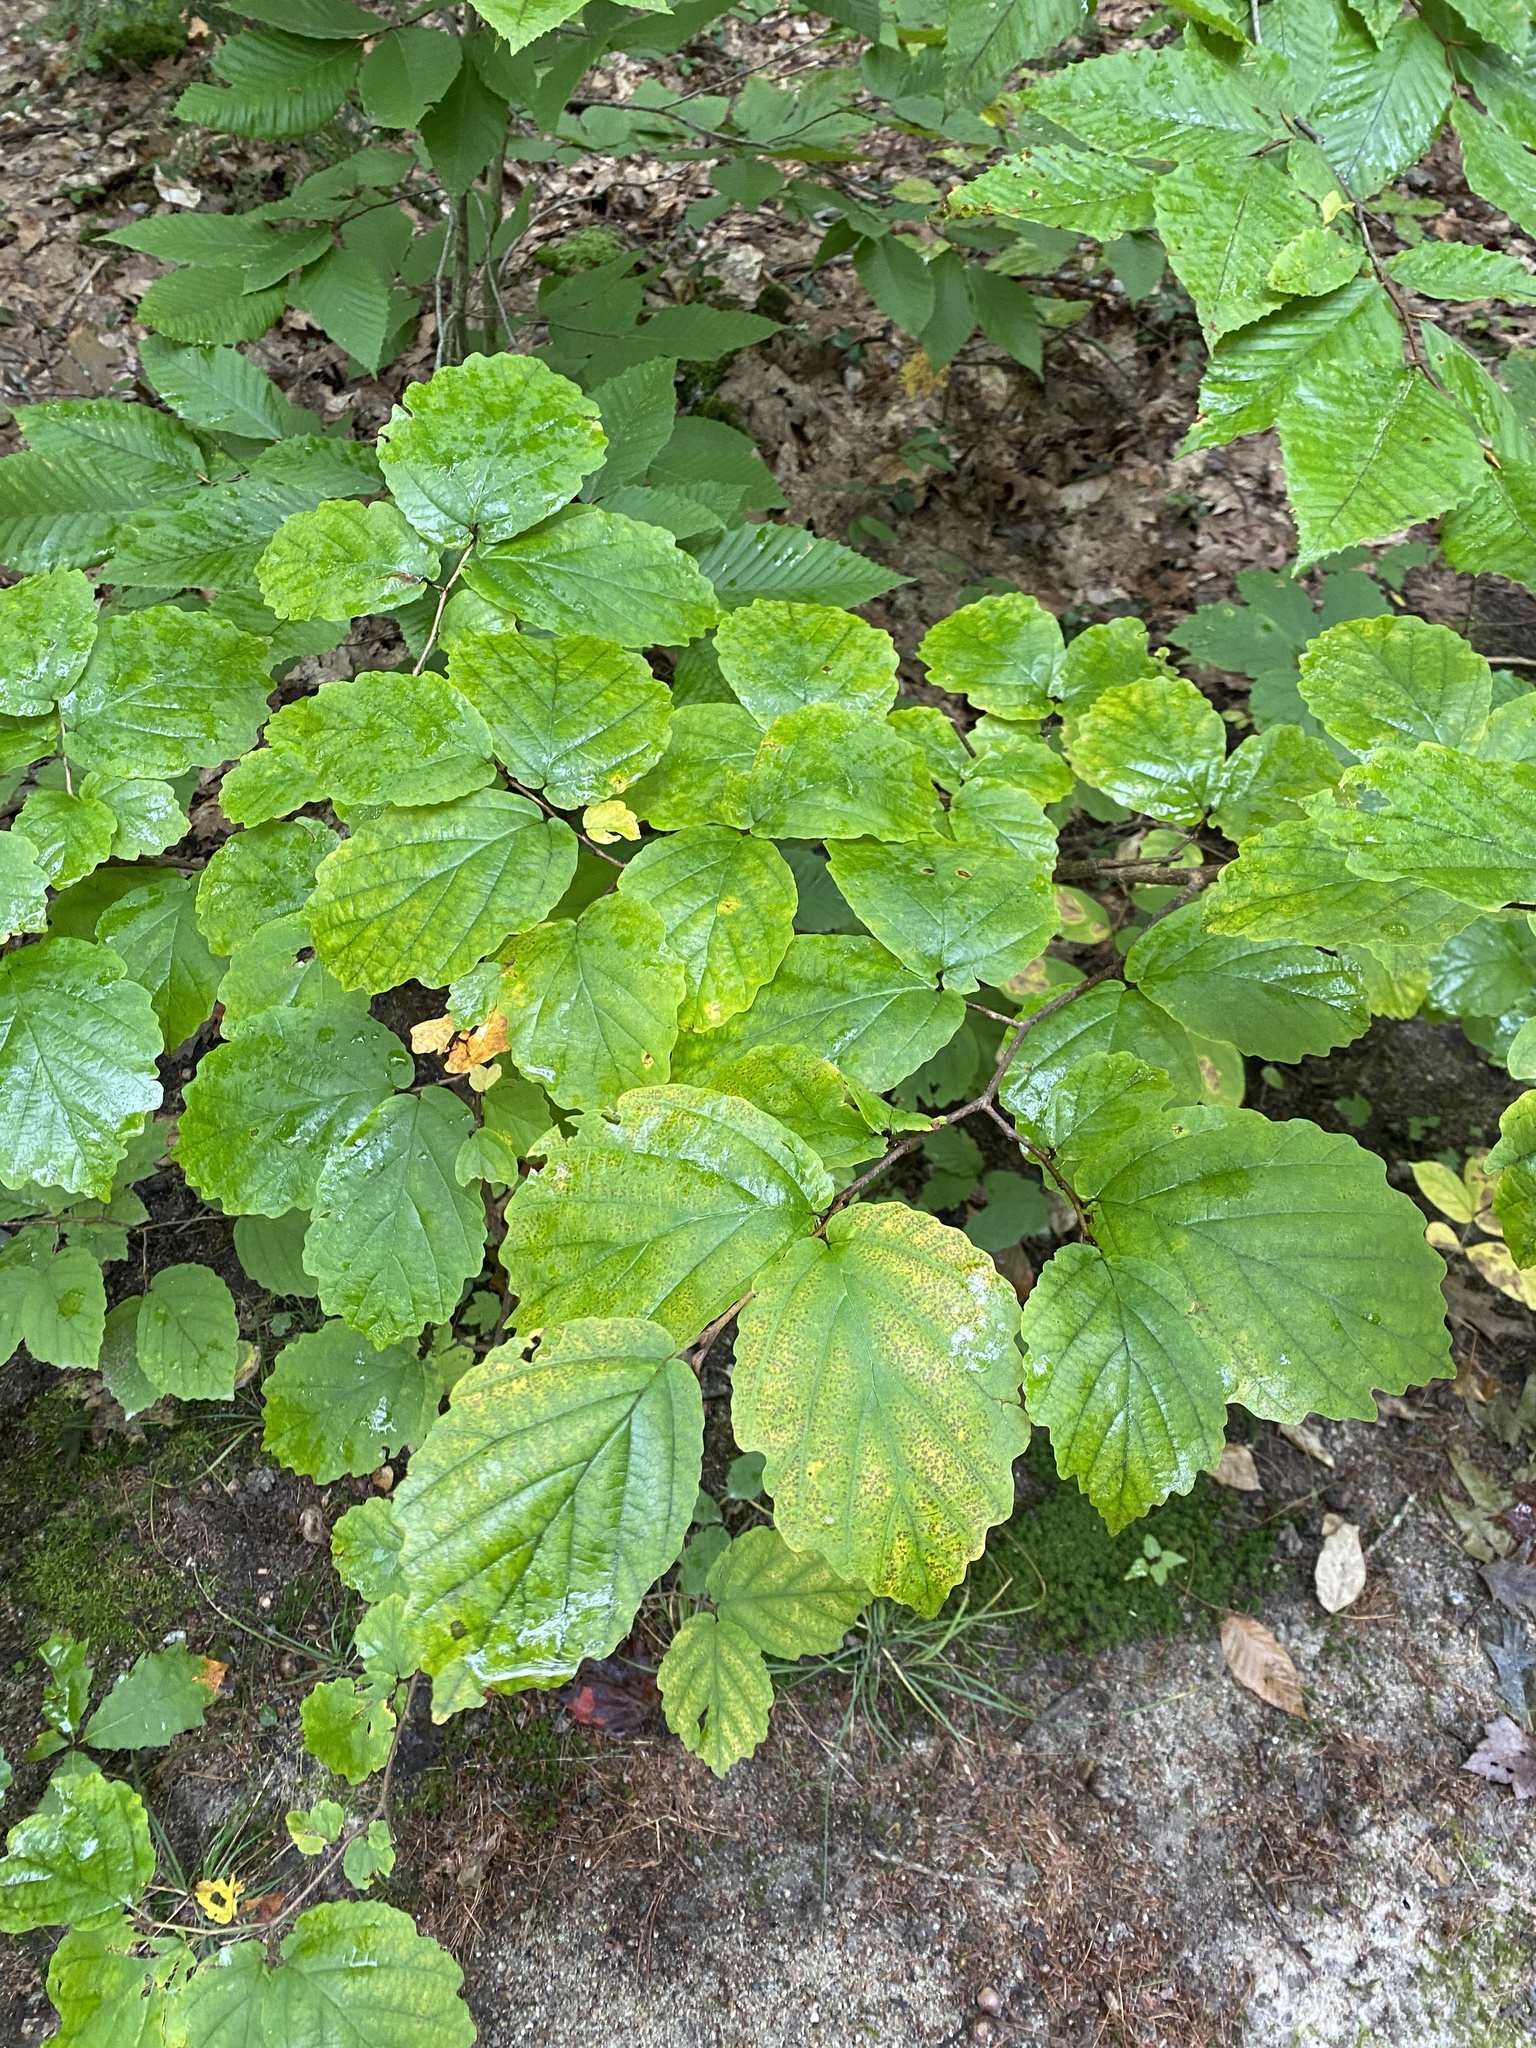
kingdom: Plantae
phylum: Tracheophyta
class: Magnoliopsida
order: Saxifragales
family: Hamamelidaceae
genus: Hamamelis
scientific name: Hamamelis virginiana
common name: Witch-hazel
